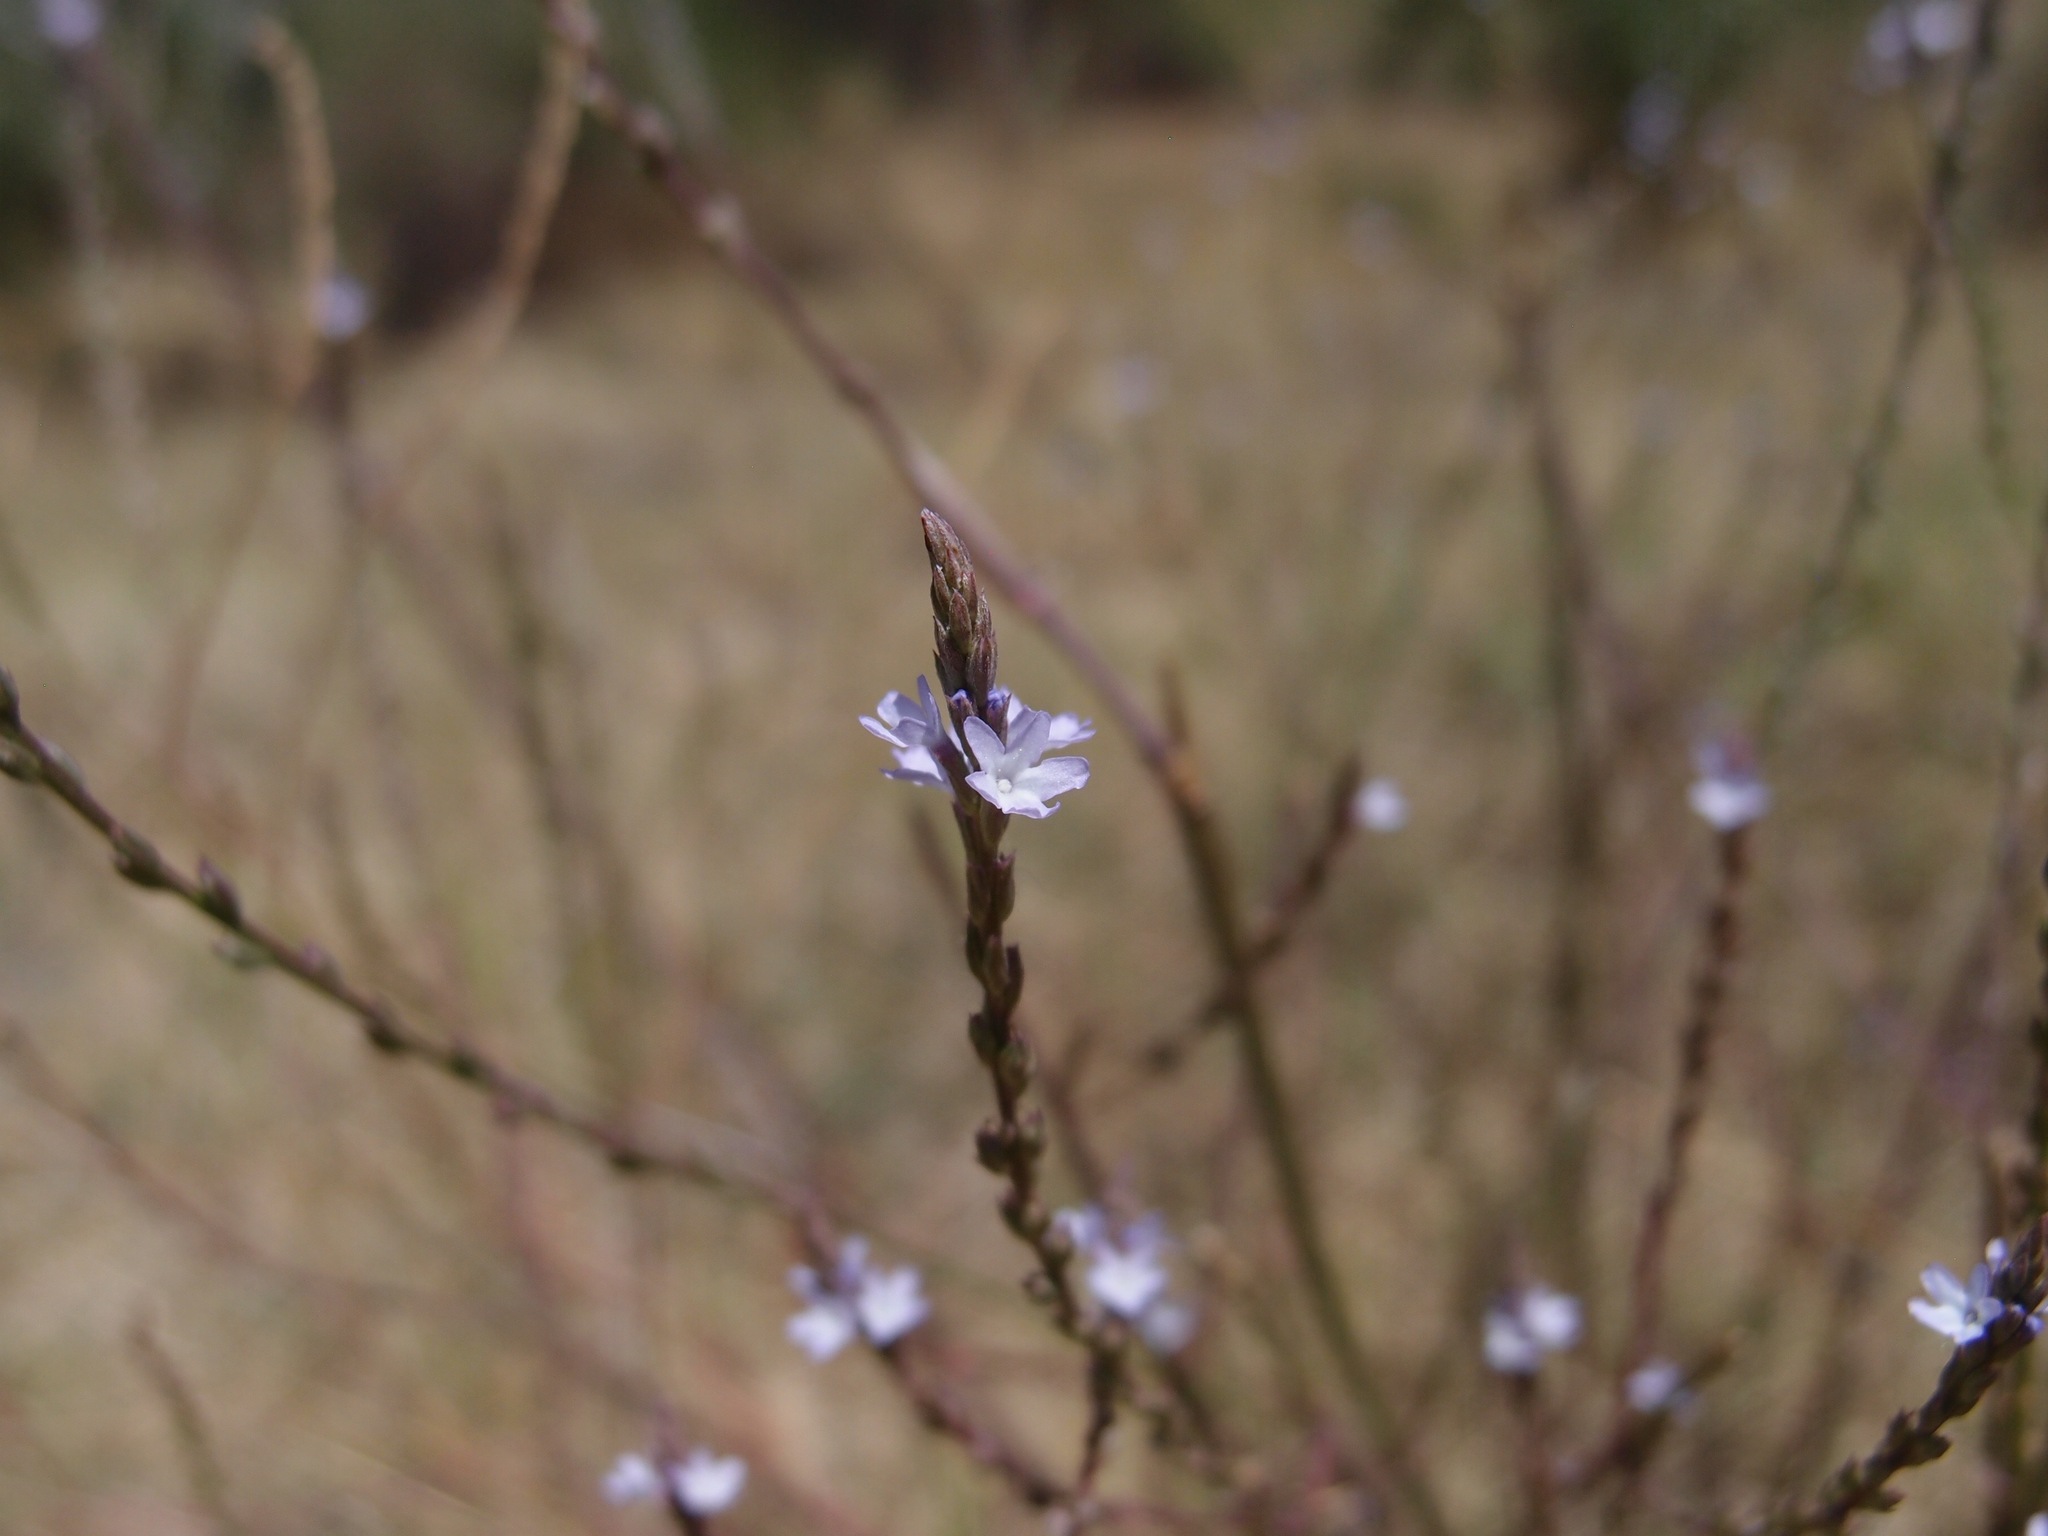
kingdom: Plantae
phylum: Tracheophyta
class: Magnoliopsida
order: Lamiales
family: Verbenaceae
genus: Verbena
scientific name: Verbena menthifolia
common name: Mint-leaf vervain
